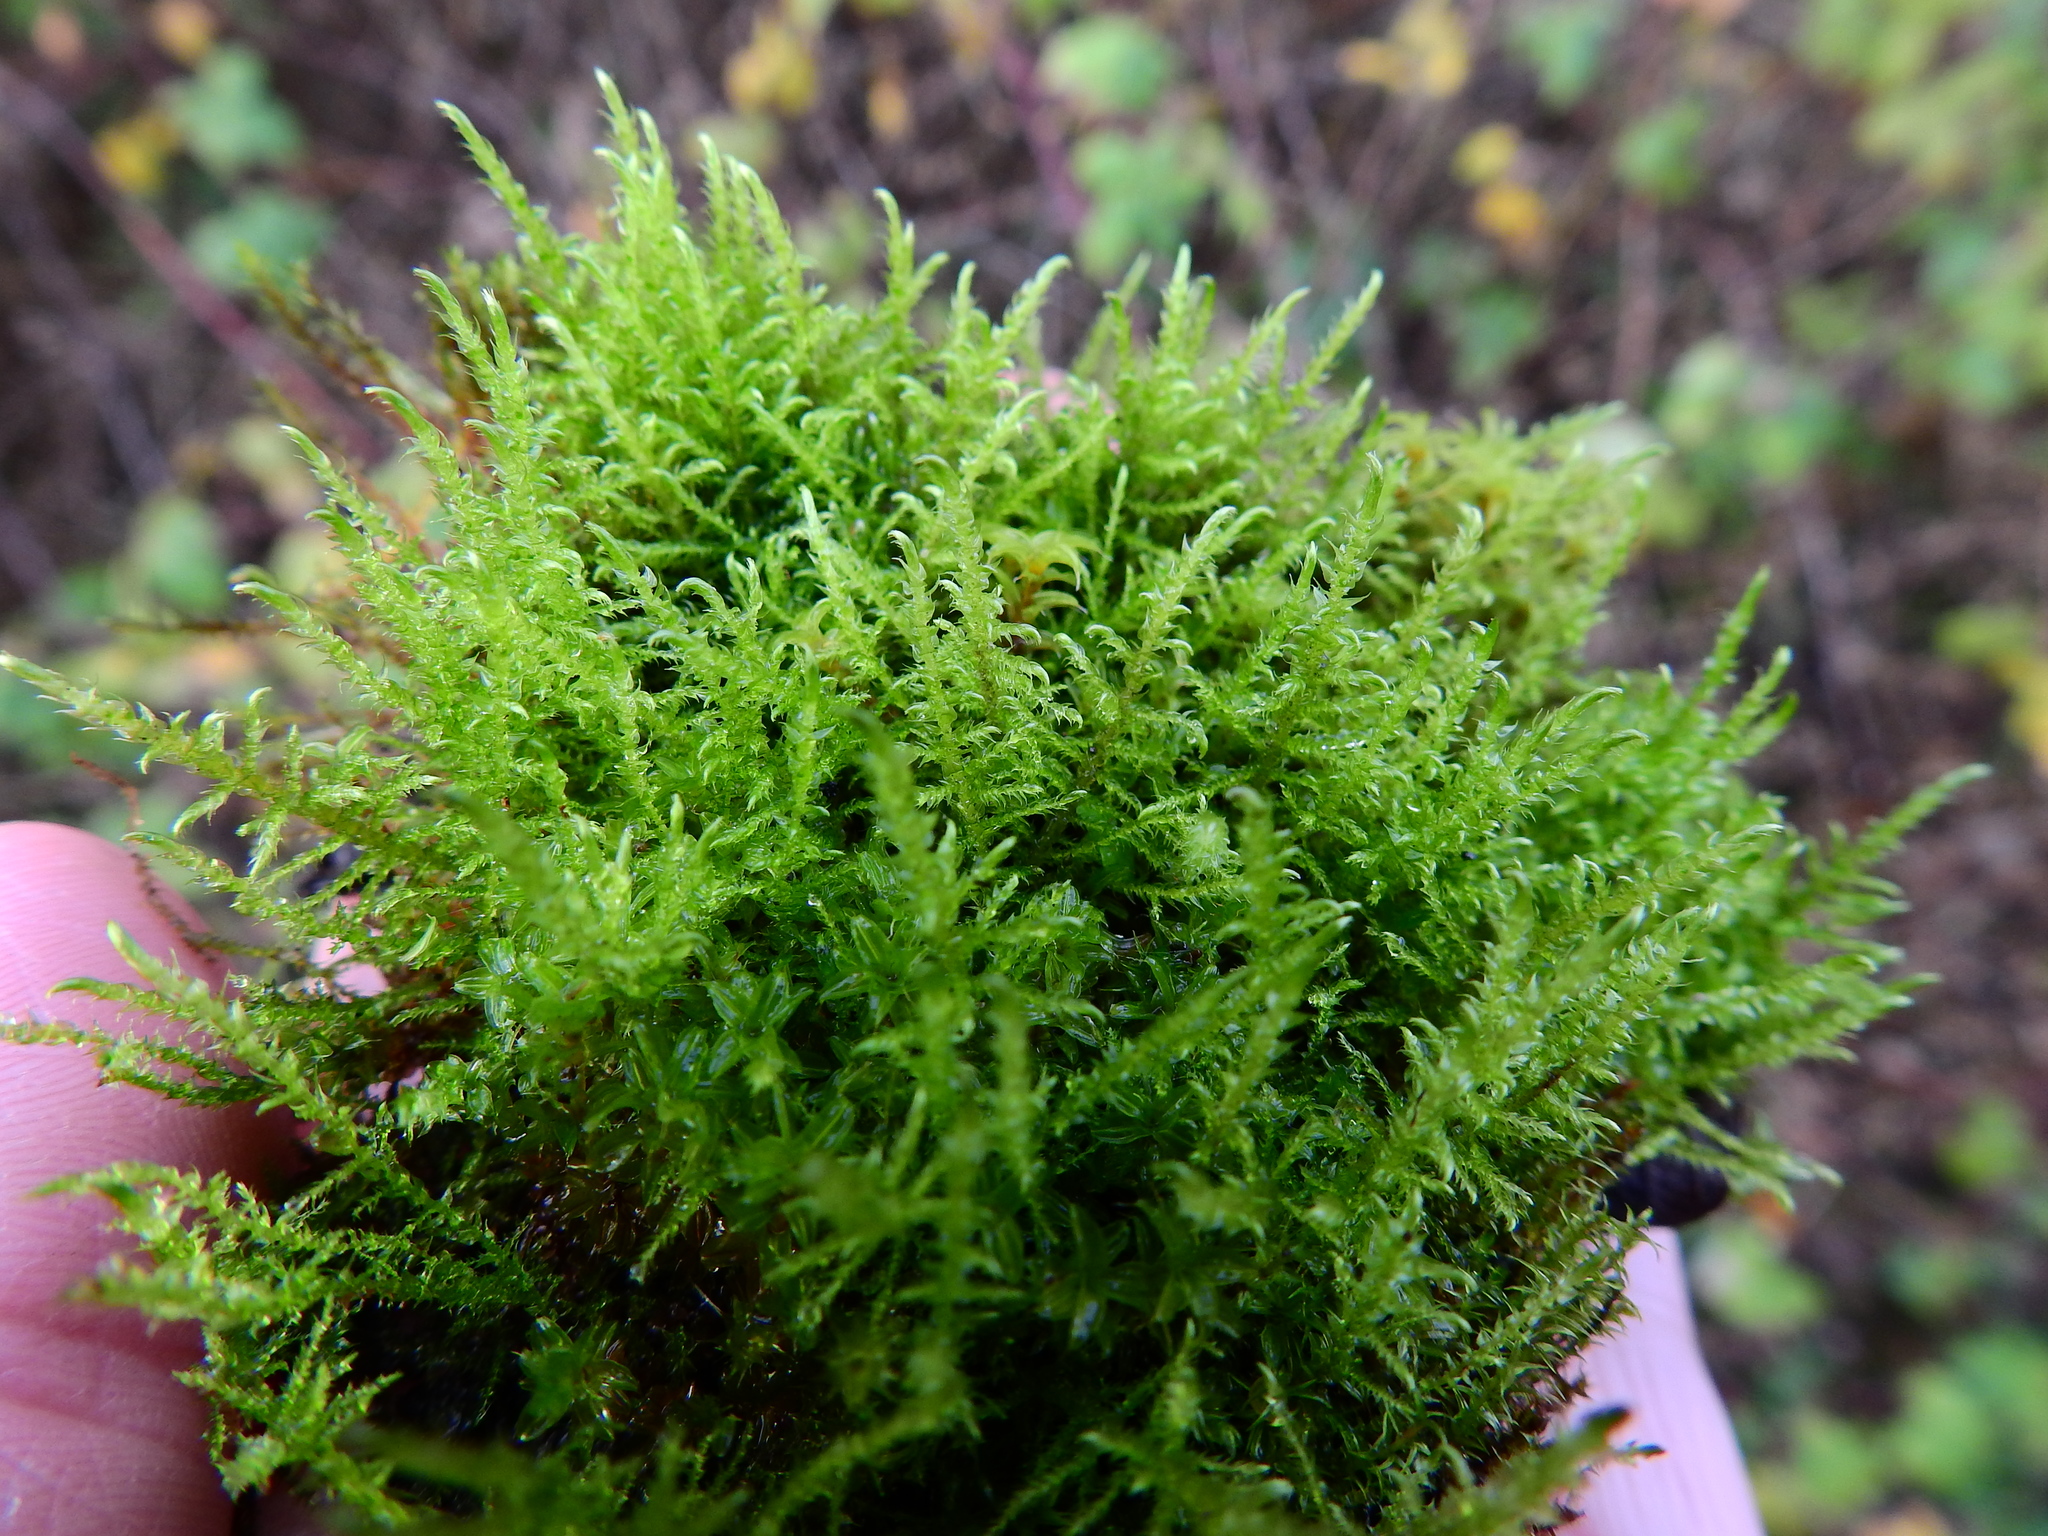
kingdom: Plantae
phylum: Bryophyta
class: Bryopsida
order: Hypnales
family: Brachytheciaceae
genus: Kindbergia
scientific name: Kindbergia praelonga
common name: Slender beaked moss
